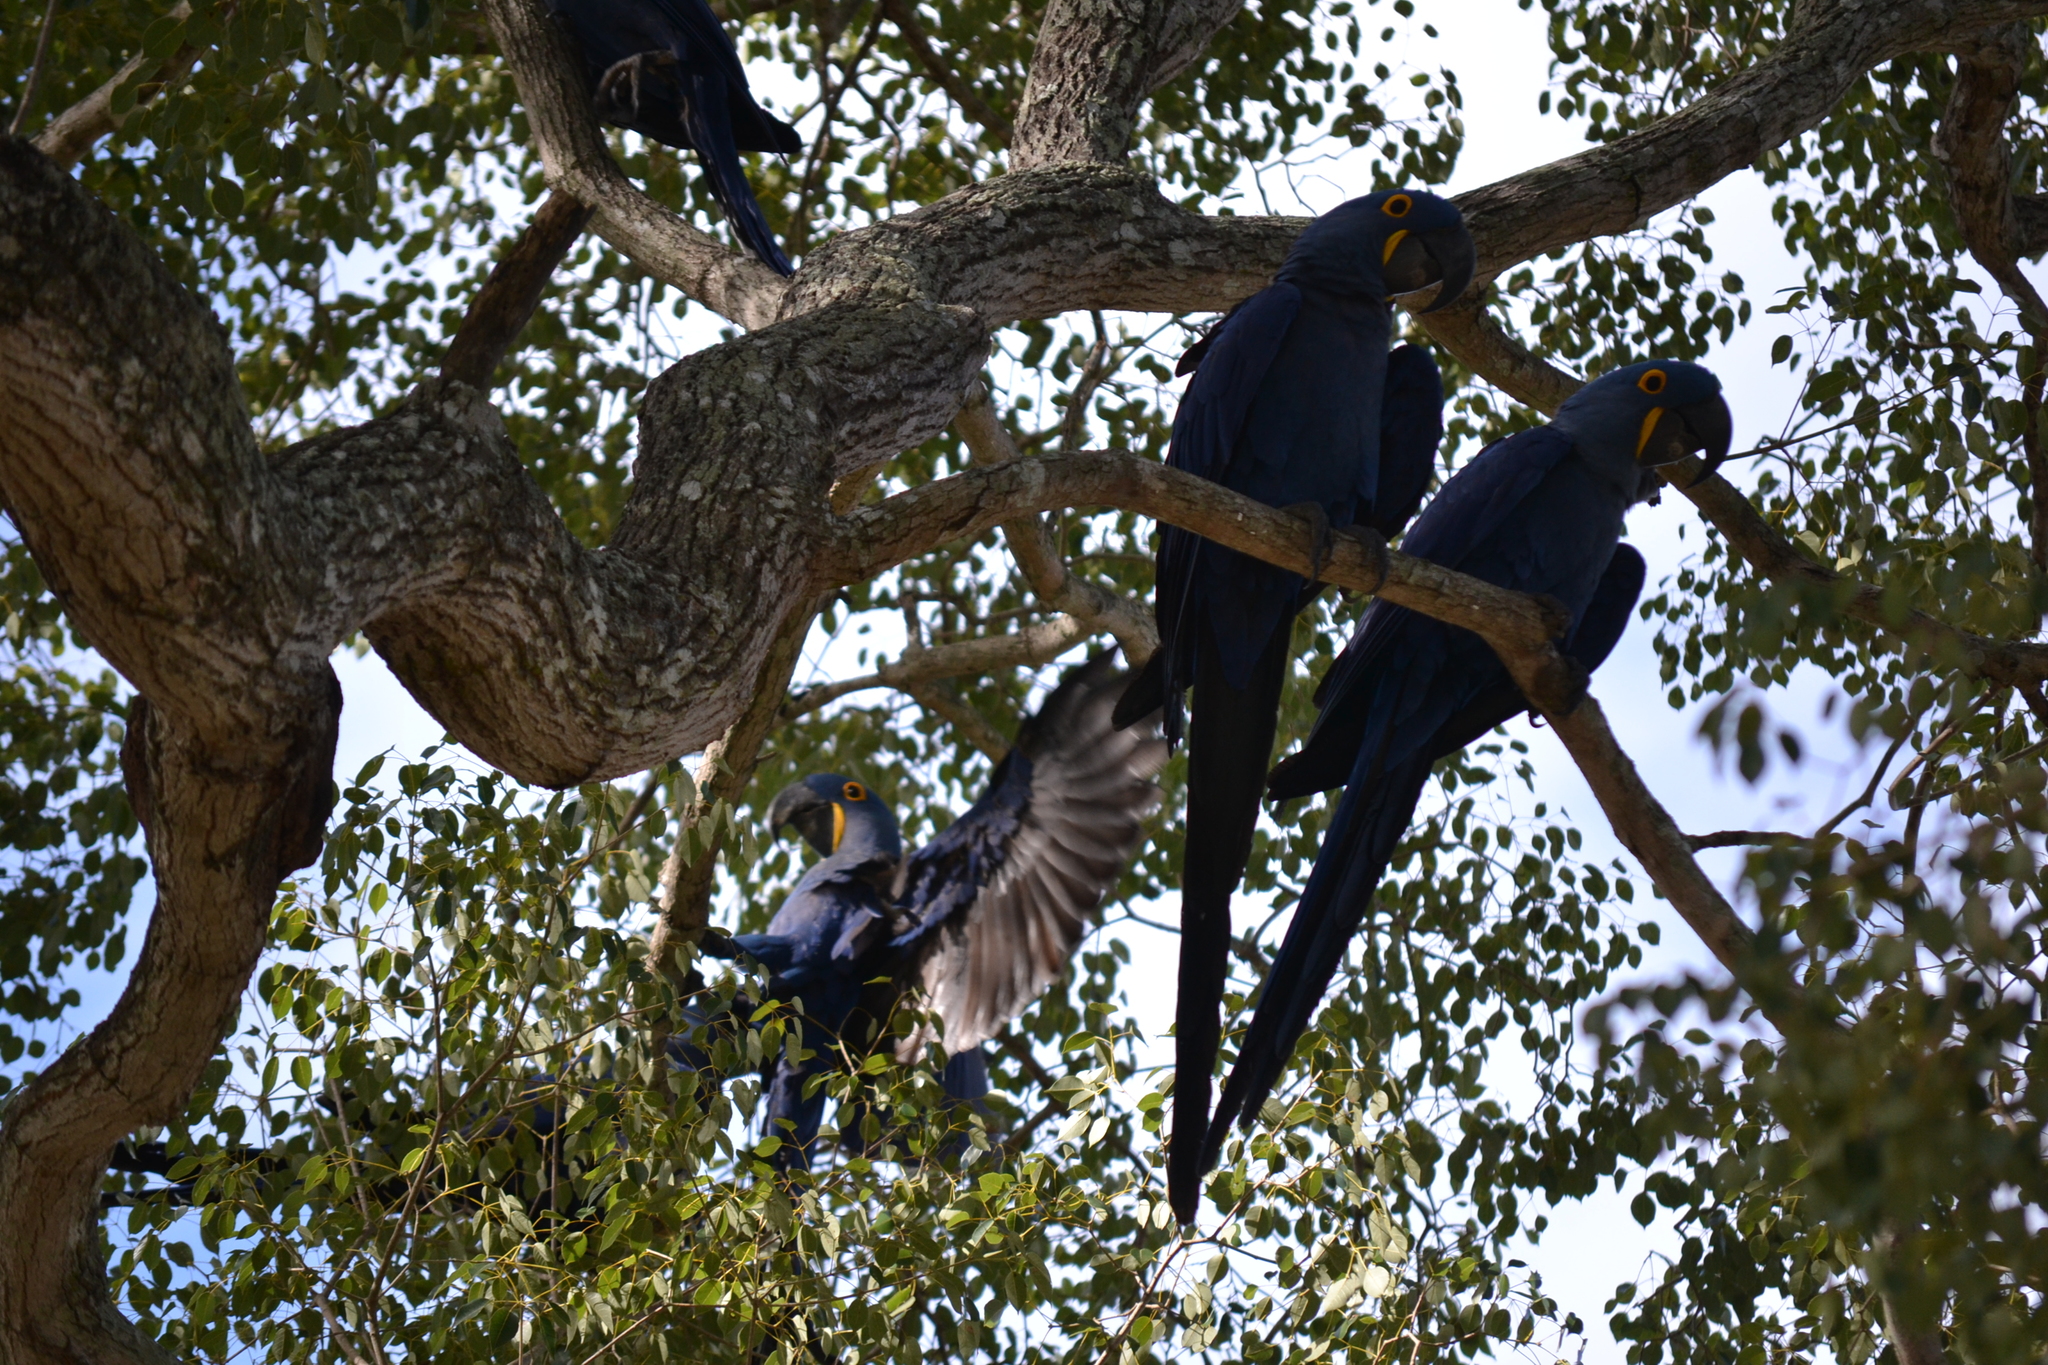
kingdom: Animalia
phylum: Chordata
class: Aves
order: Psittaciformes
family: Psittacidae
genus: Anodorhynchus
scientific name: Anodorhynchus hyacinthinus
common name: Hyacinth macaw
